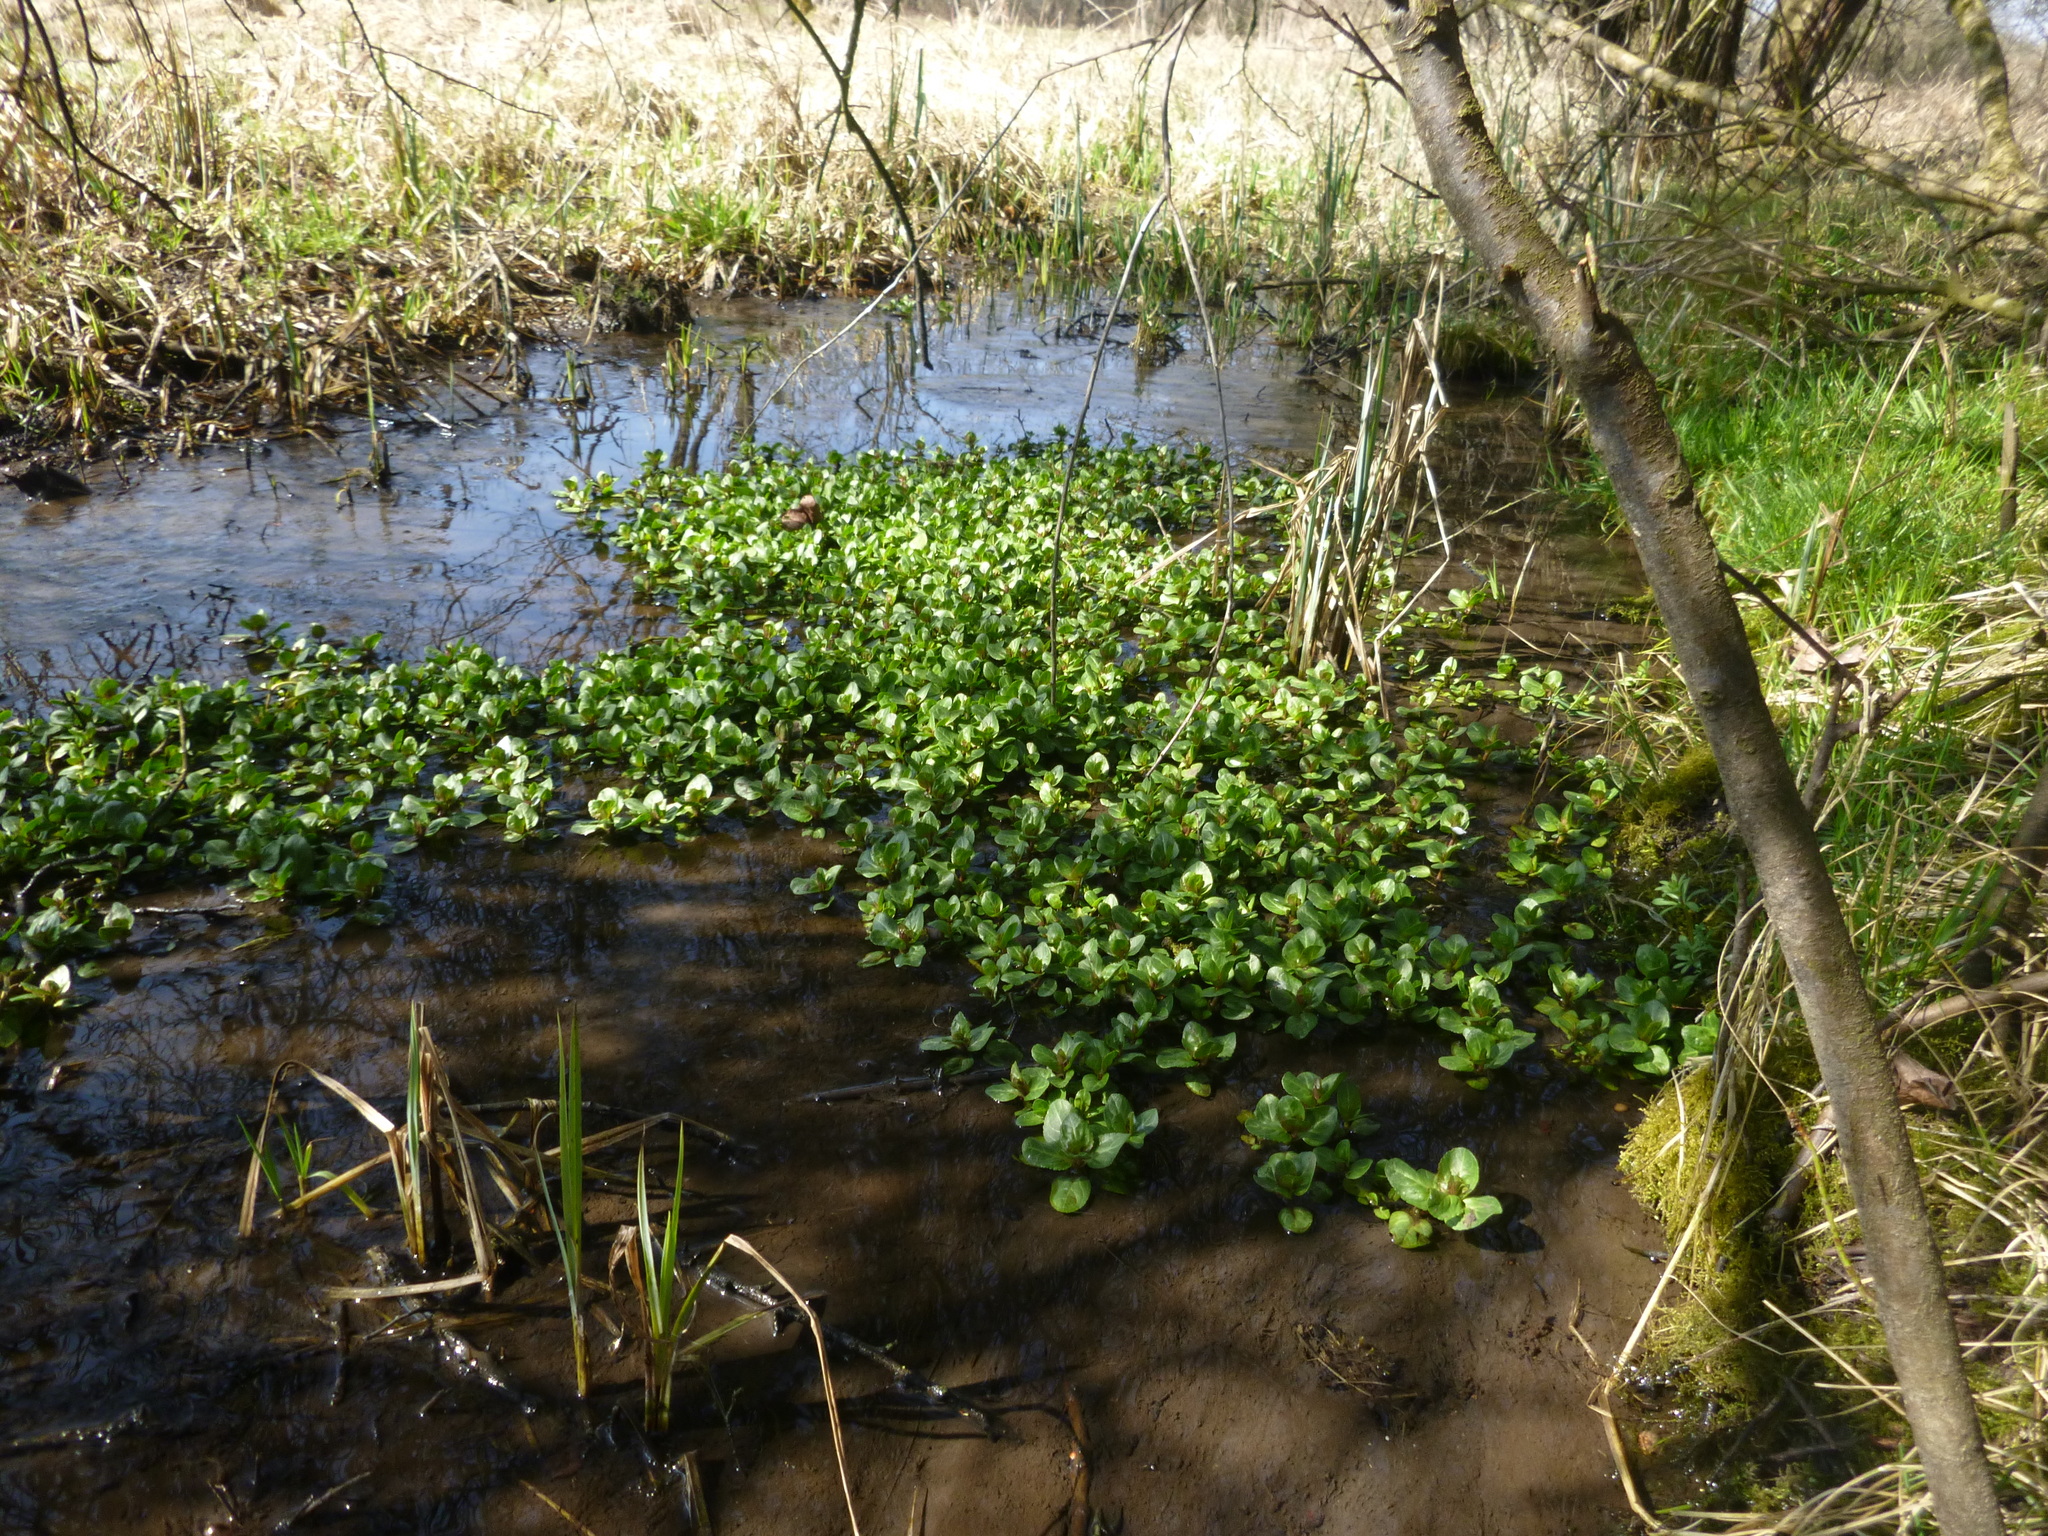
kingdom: Plantae
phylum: Tracheophyta
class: Magnoliopsida
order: Lamiales
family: Plantaginaceae
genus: Veronica
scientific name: Veronica beccabunga
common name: Brooklime
